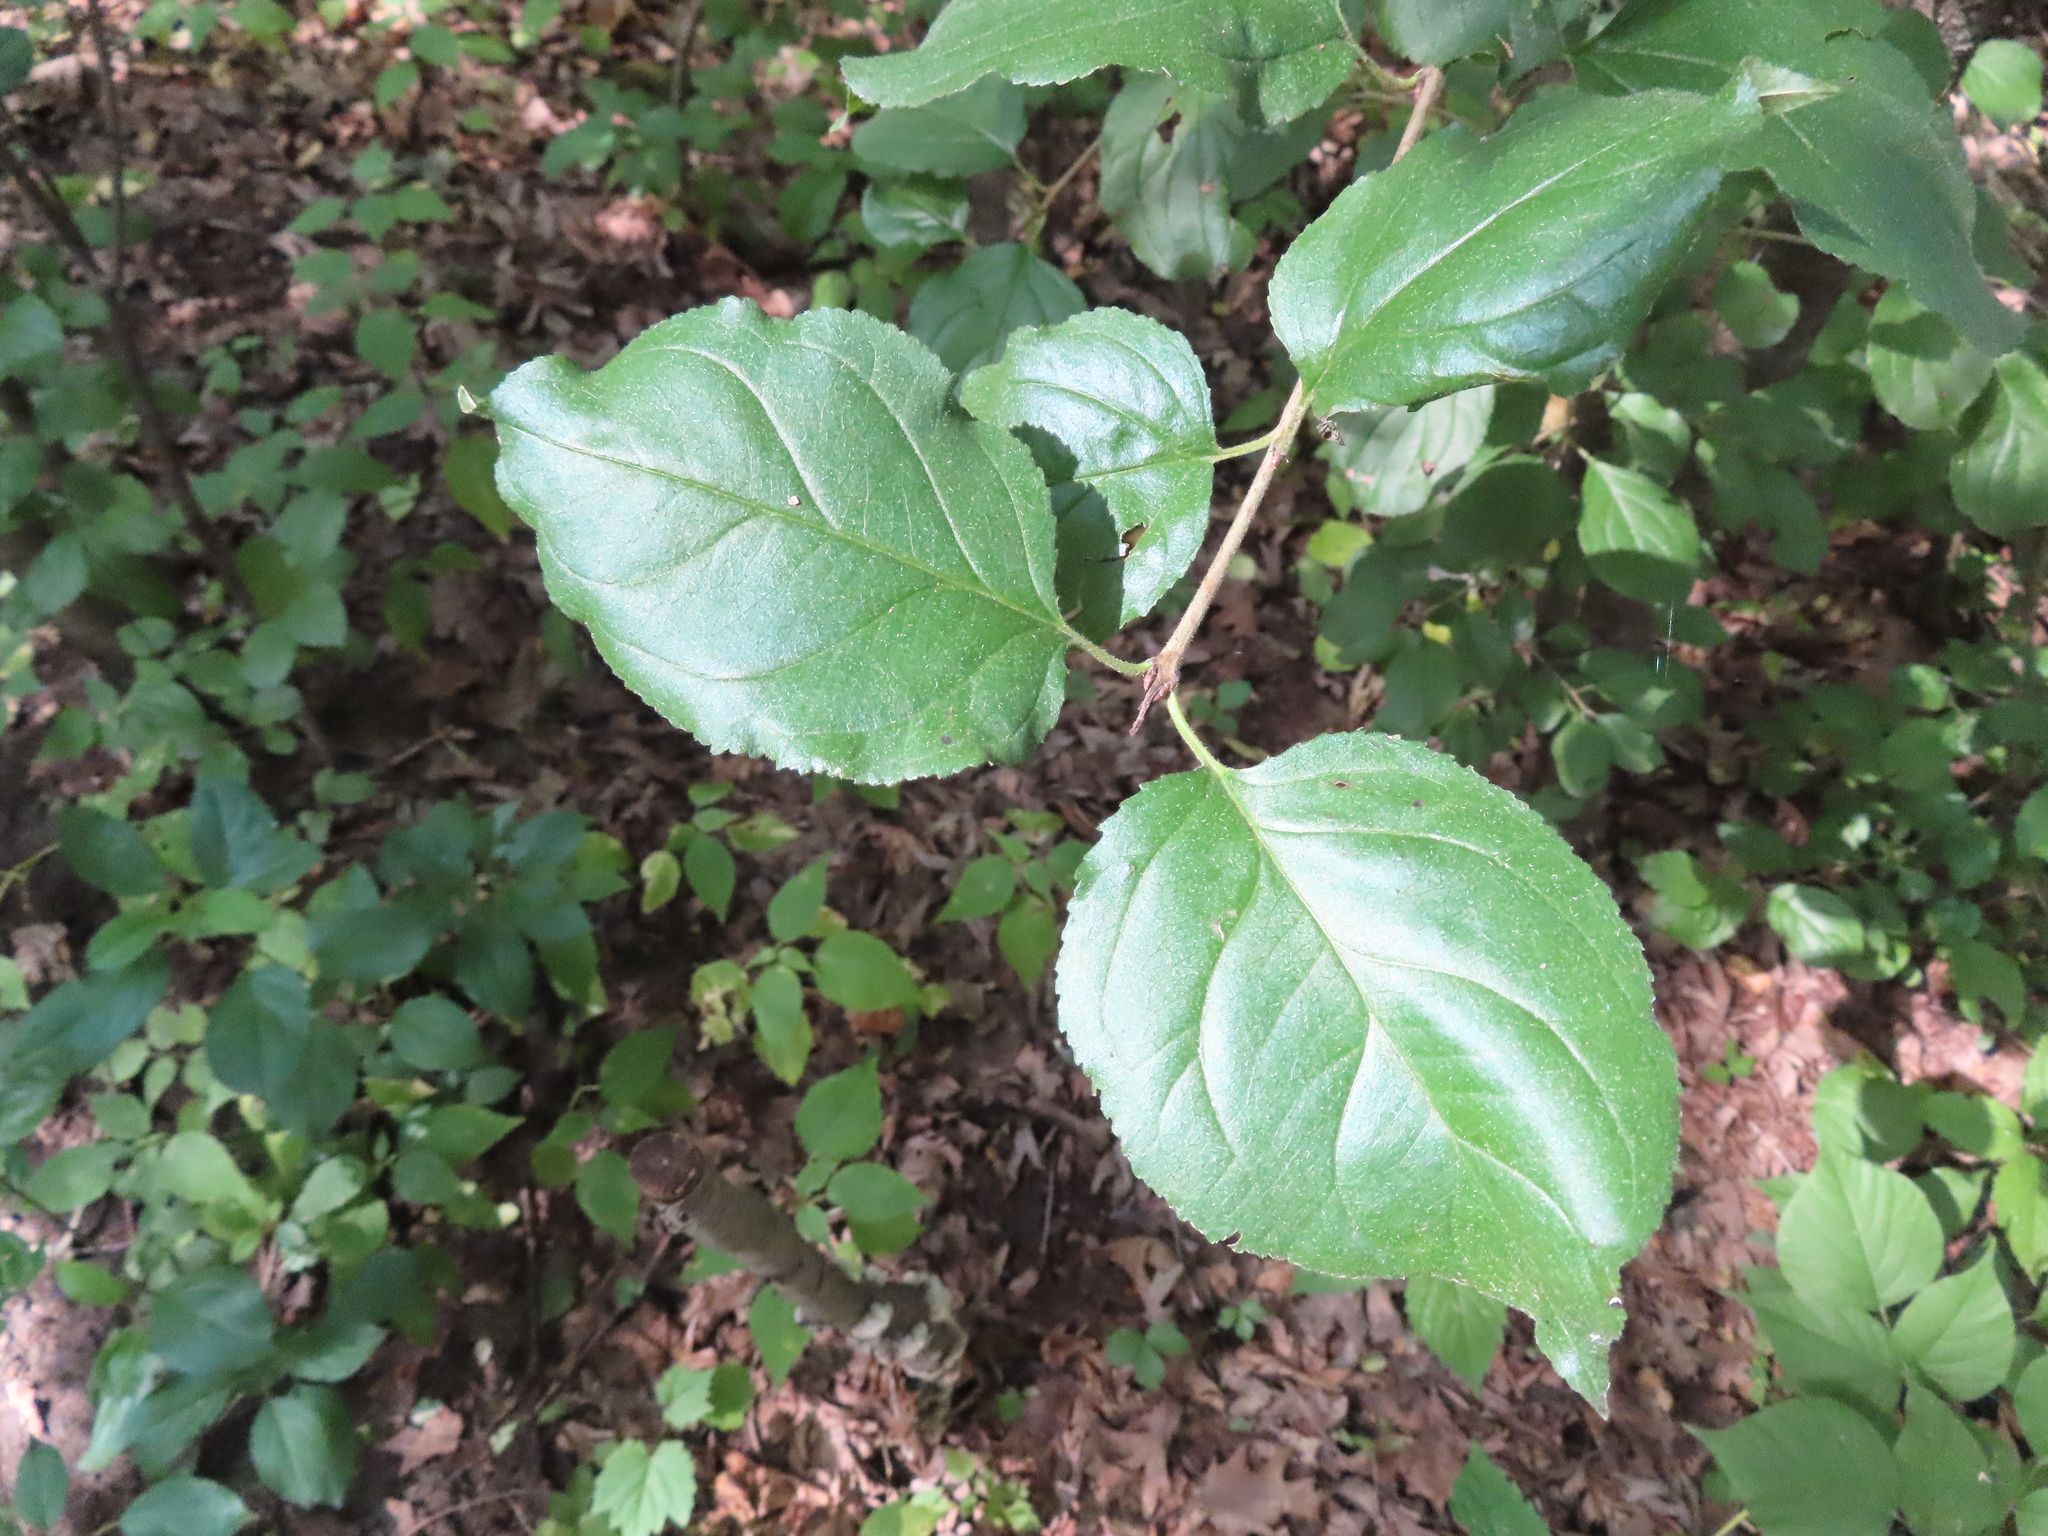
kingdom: Plantae
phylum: Tracheophyta
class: Magnoliopsida
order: Rosales
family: Rhamnaceae
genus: Rhamnus
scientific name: Rhamnus cathartica
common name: Common buckthorn
